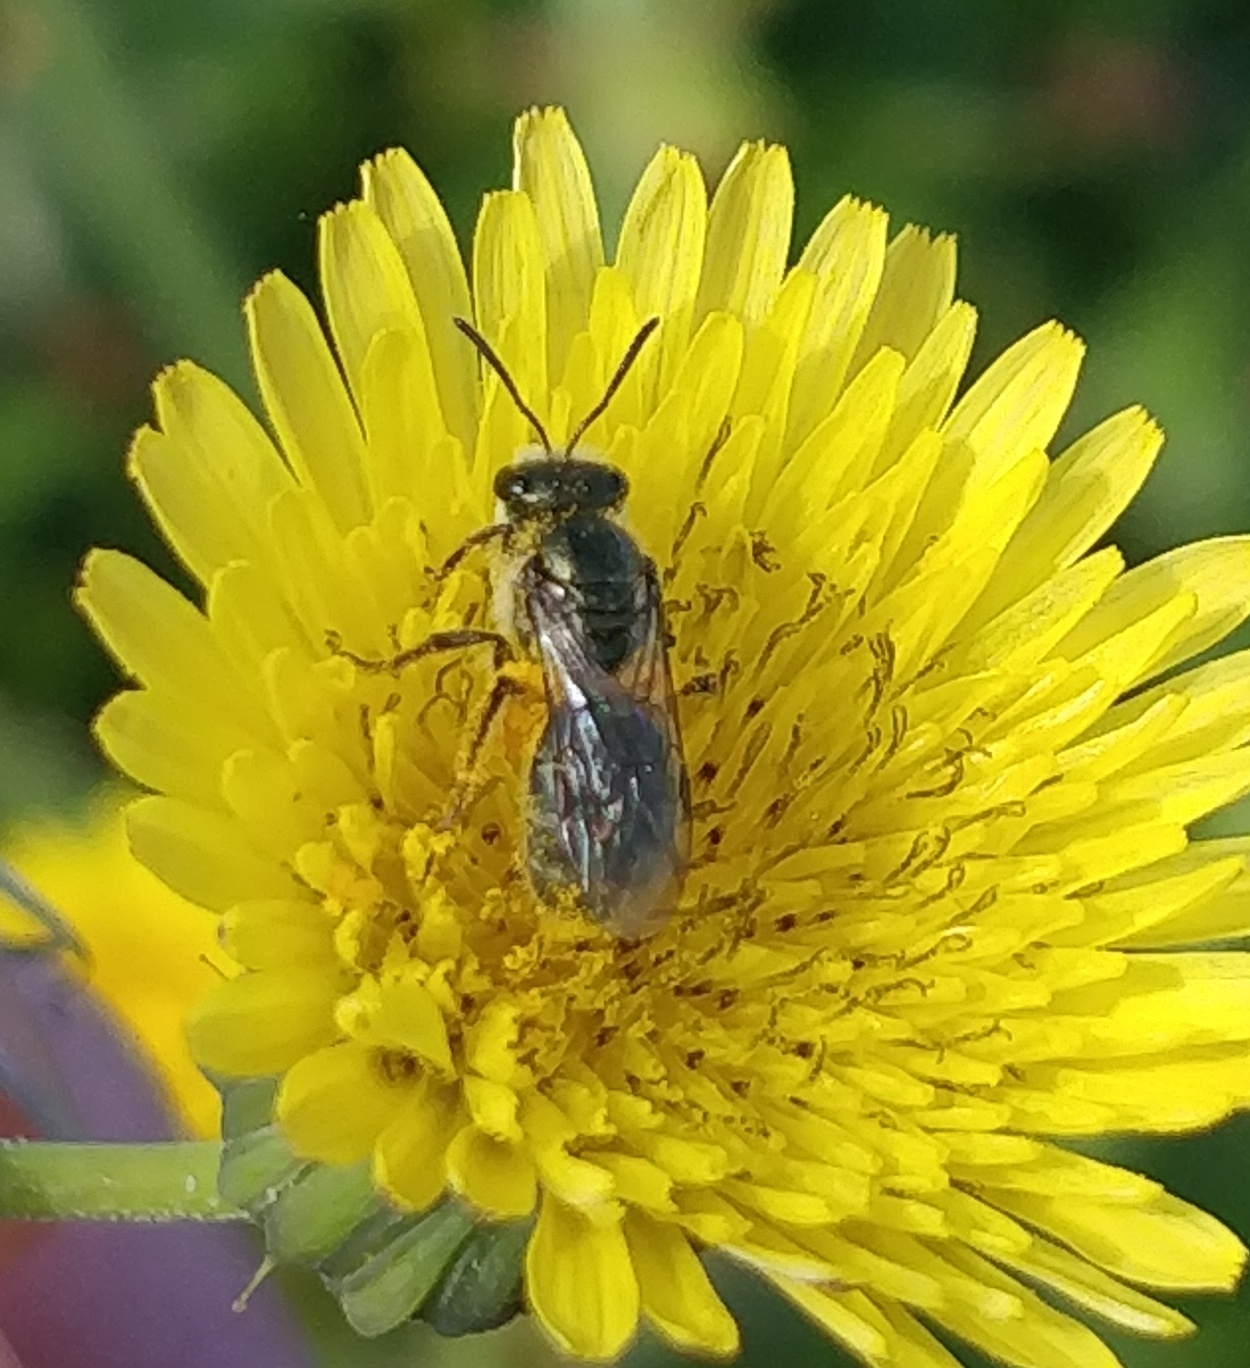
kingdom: Animalia
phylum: Arthropoda
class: Insecta
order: Hymenoptera
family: Halictidae
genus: Lasioglossum
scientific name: Lasioglossum viride
